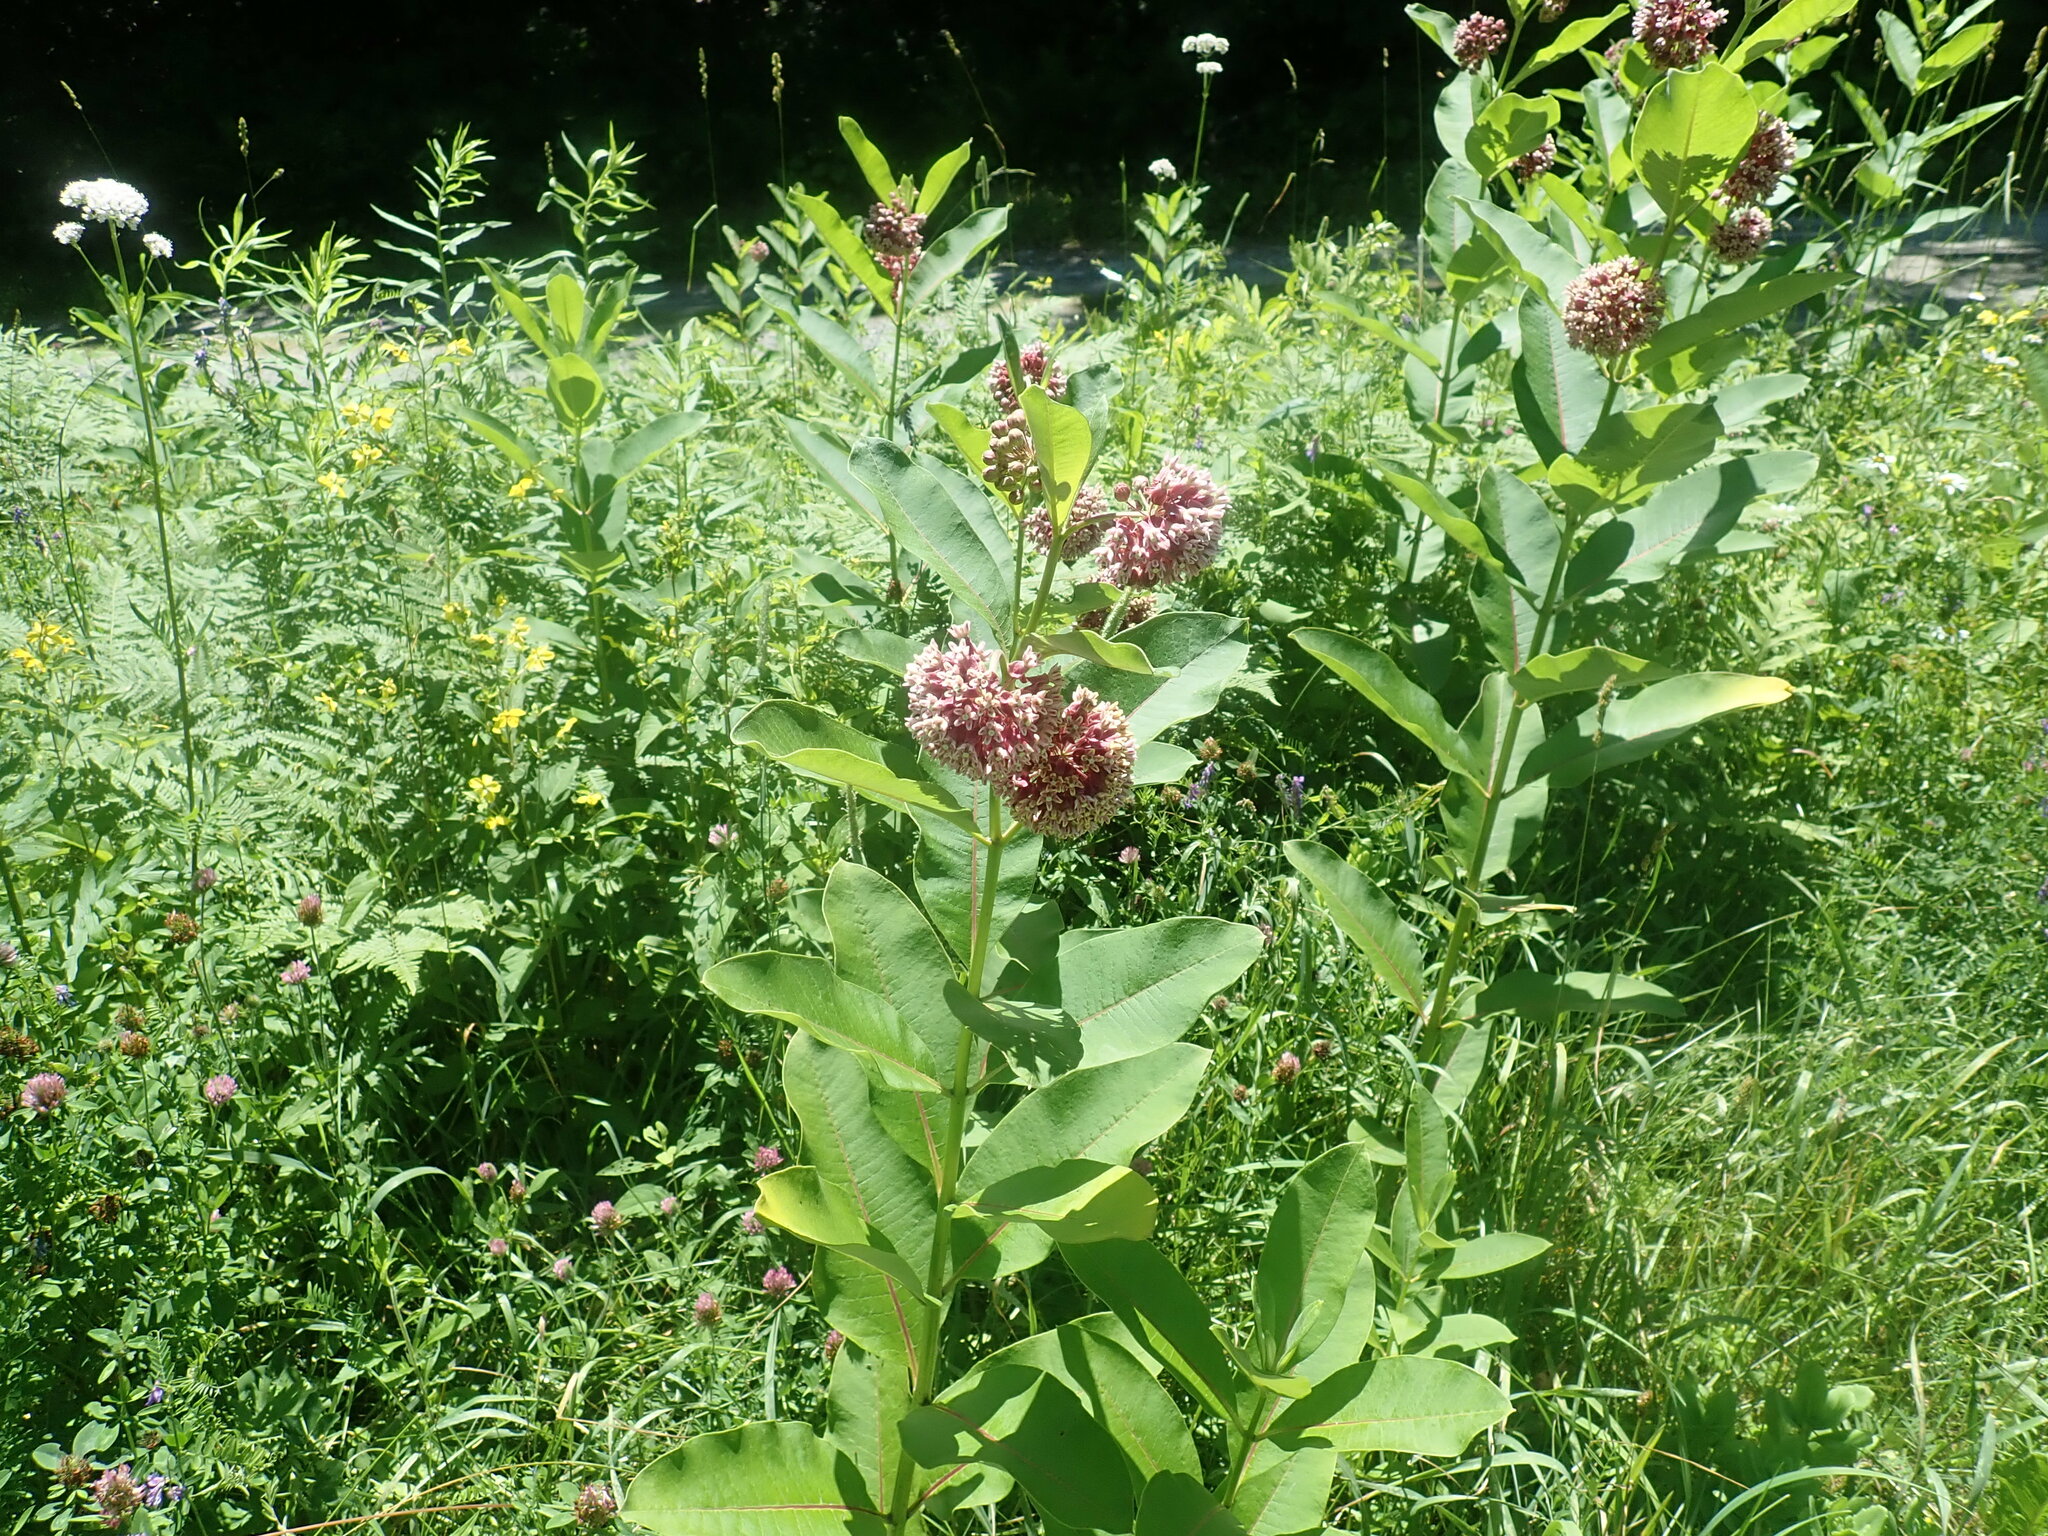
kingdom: Plantae
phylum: Tracheophyta
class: Magnoliopsida
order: Gentianales
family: Apocynaceae
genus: Asclepias
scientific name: Asclepias syriaca
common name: Common milkweed
